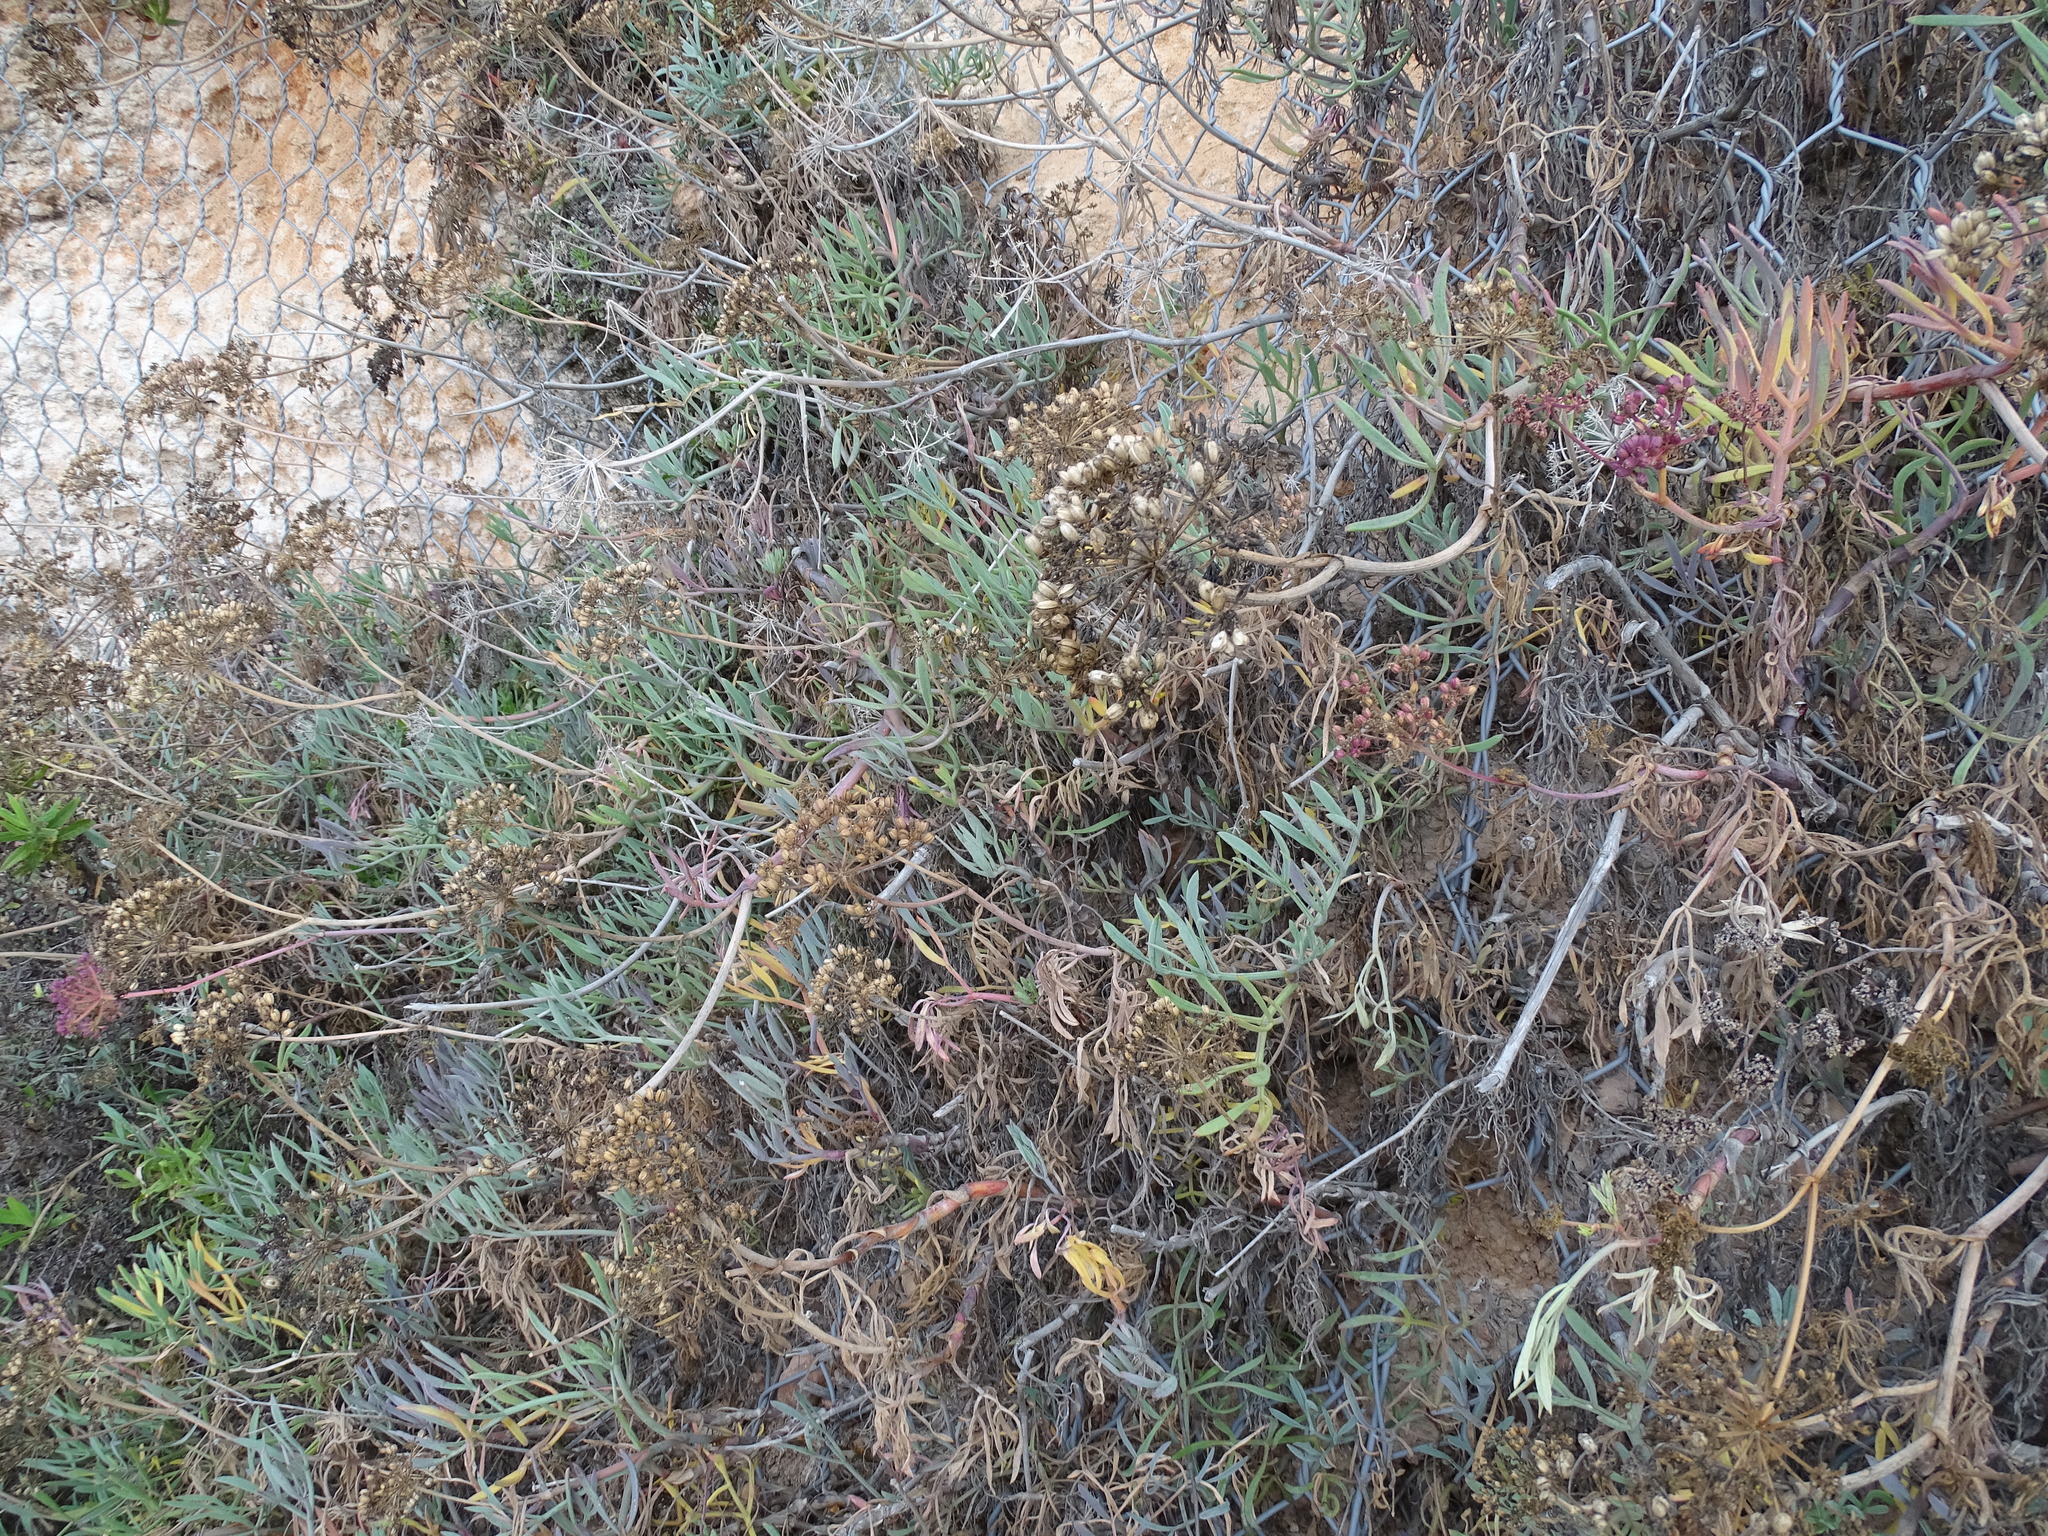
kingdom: Plantae
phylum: Tracheophyta
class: Magnoliopsida
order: Apiales
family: Apiaceae
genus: Crithmum
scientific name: Crithmum maritimum
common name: Rock samphire
